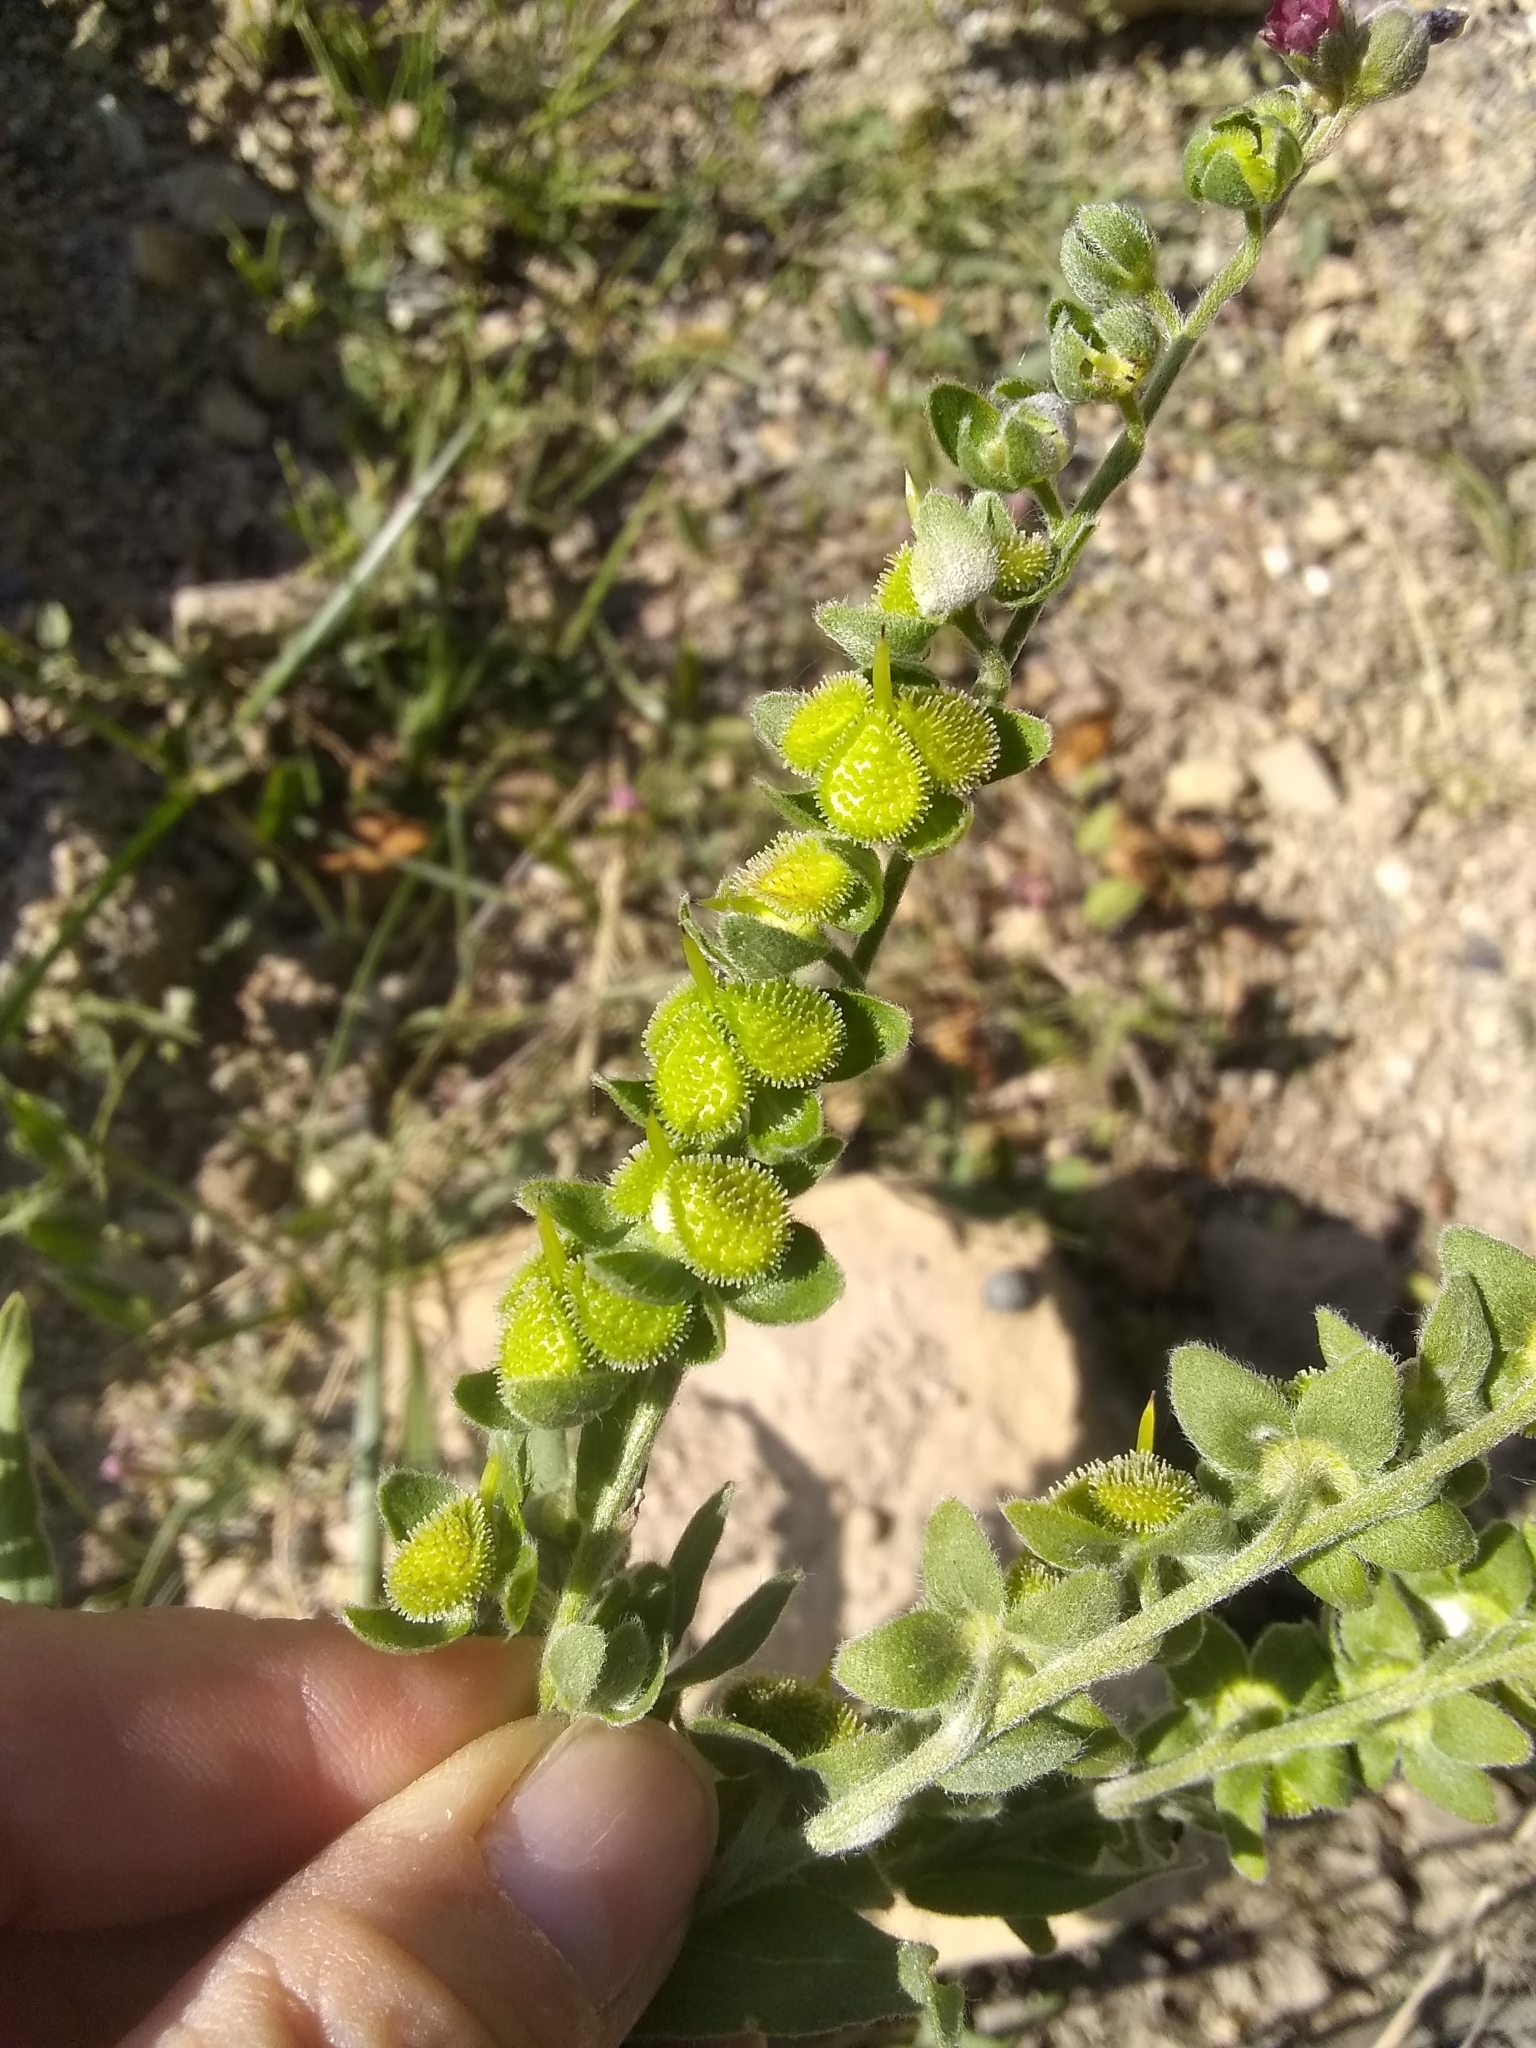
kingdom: Plantae
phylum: Tracheophyta
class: Magnoliopsida
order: Boraginales
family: Boraginaceae
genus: Cynoglossum
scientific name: Cynoglossum officinale
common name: Hound's-tongue
